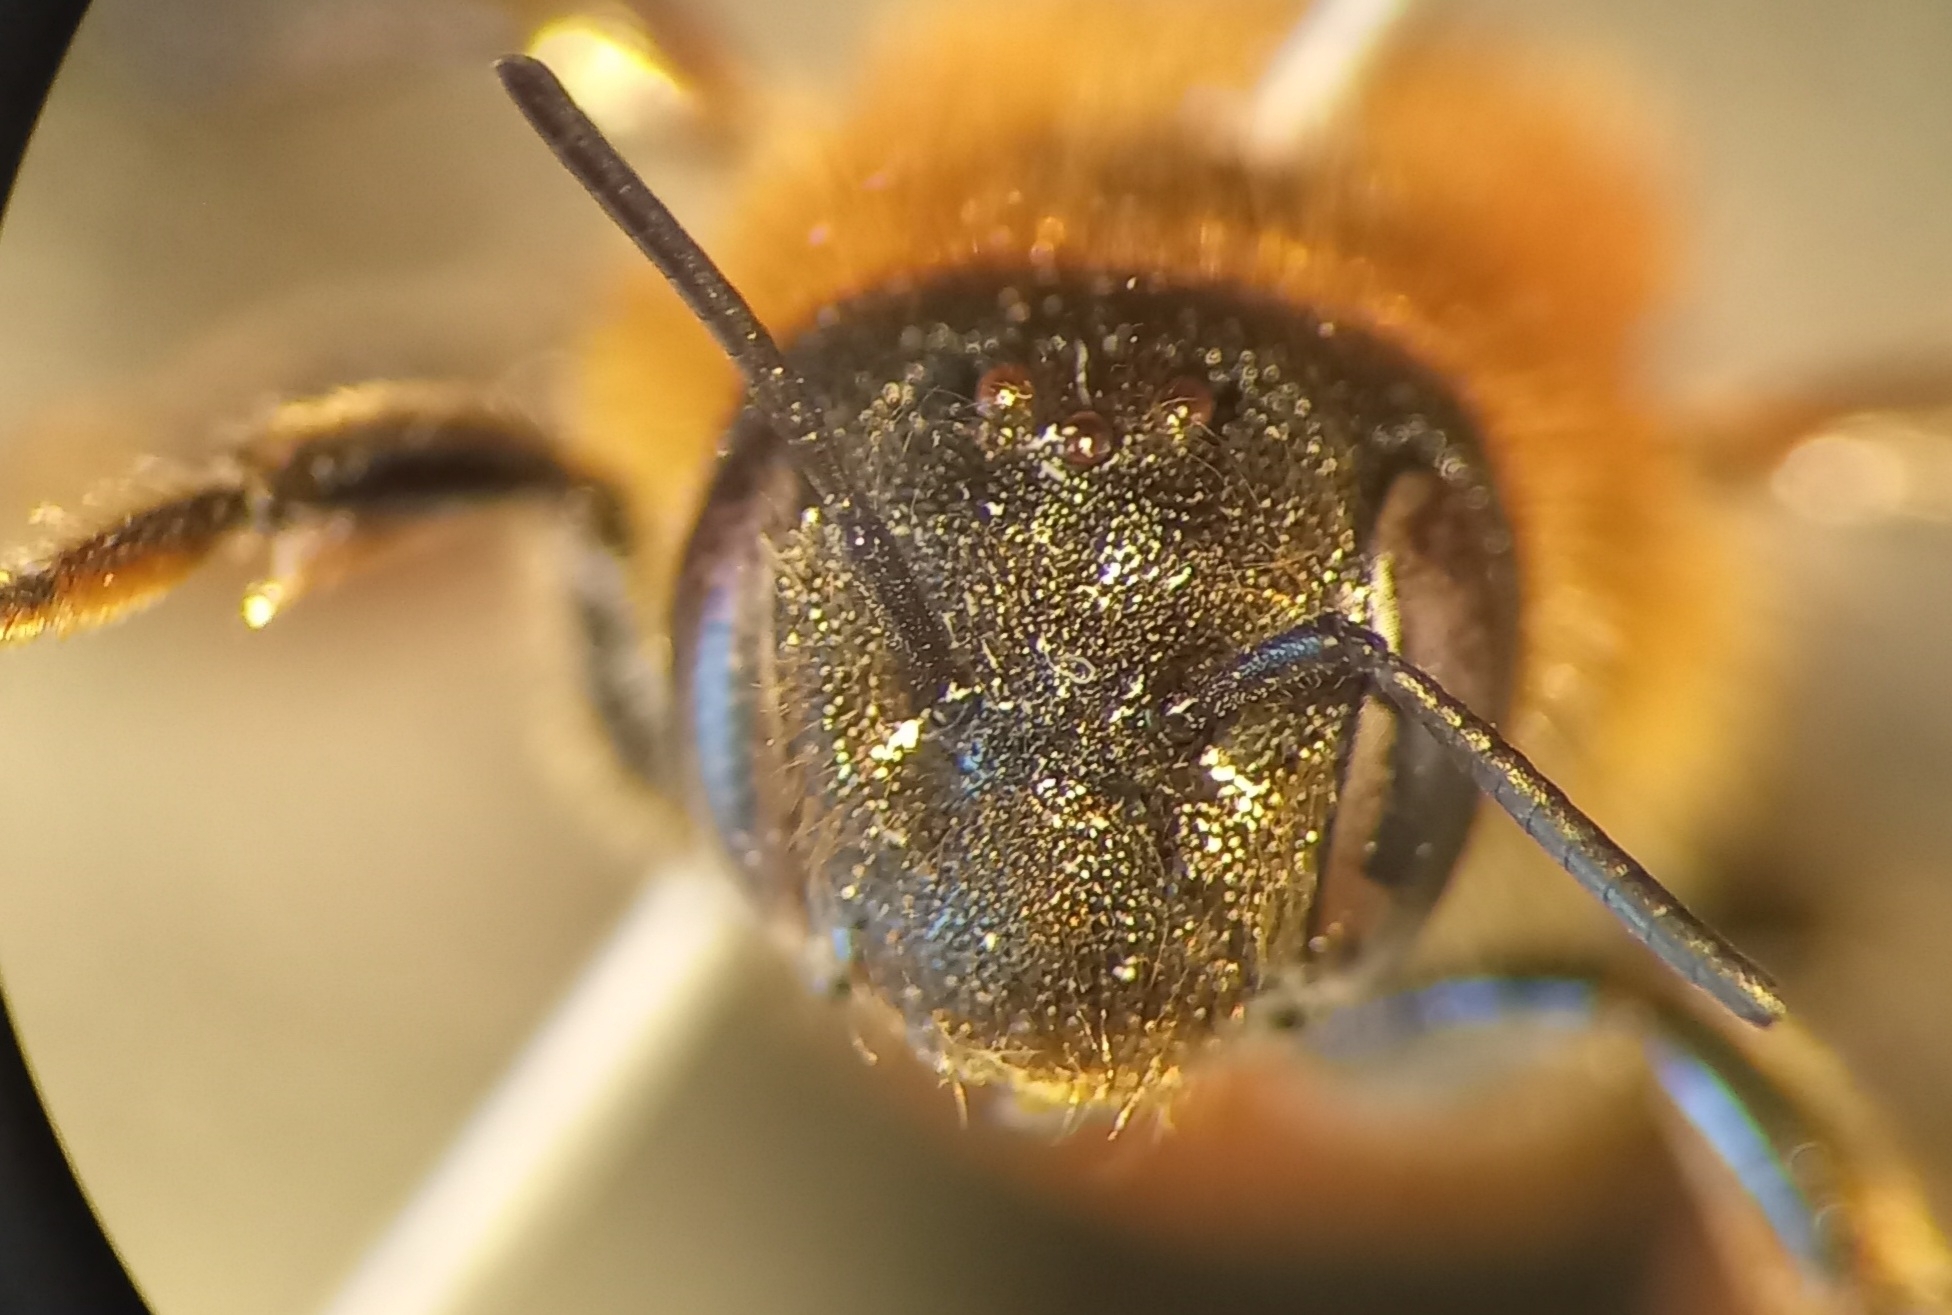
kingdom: Animalia
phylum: Arthropoda
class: Insecta
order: Hymenoptera
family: Megachilidae
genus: Osmia
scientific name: Osmia aurulenta
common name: Gold-fringed mason bee
